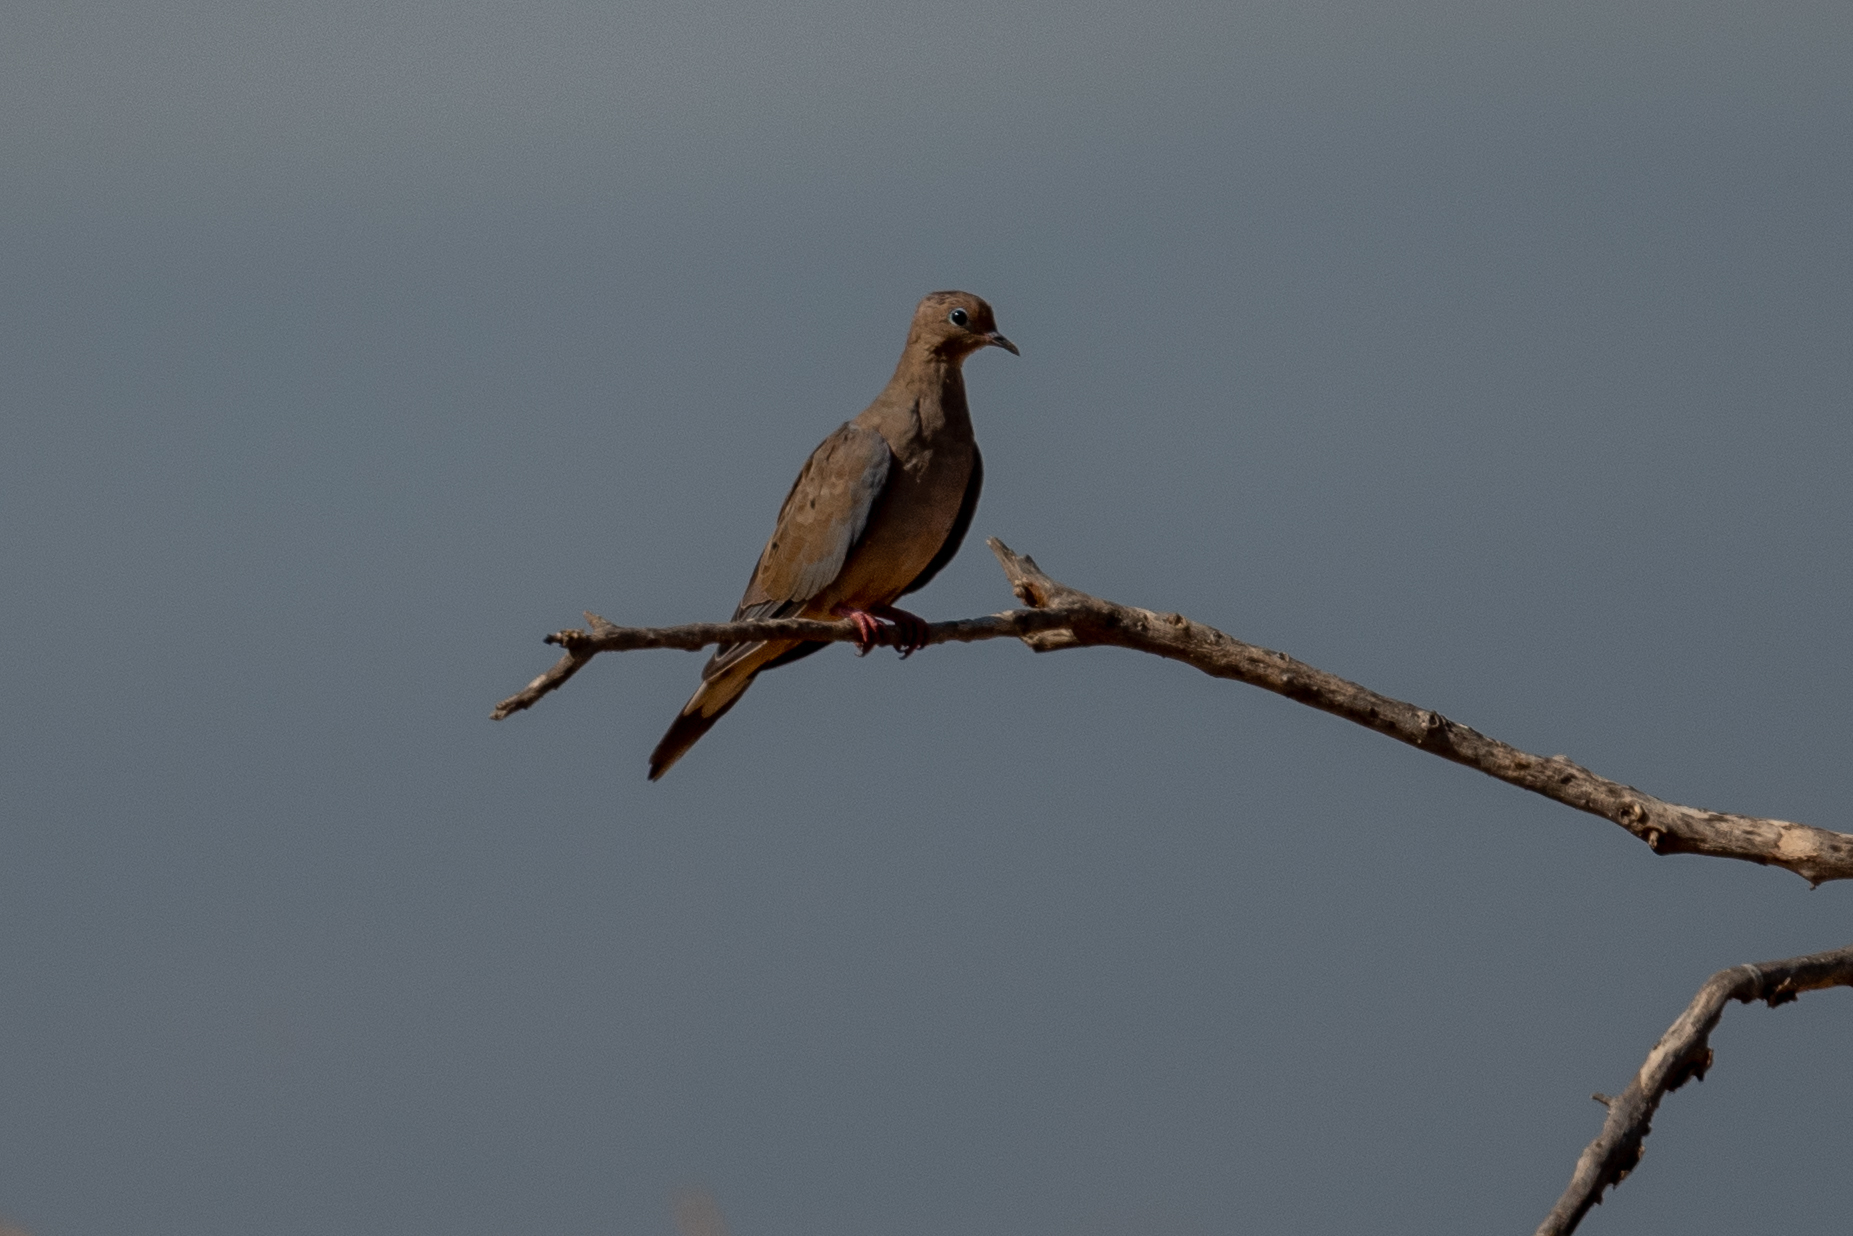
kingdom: Animalia
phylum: Chordata
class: Aves
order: Columbiformes
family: Columbidae
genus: Zenaida
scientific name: Zenaida macroura
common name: Mourning dove
